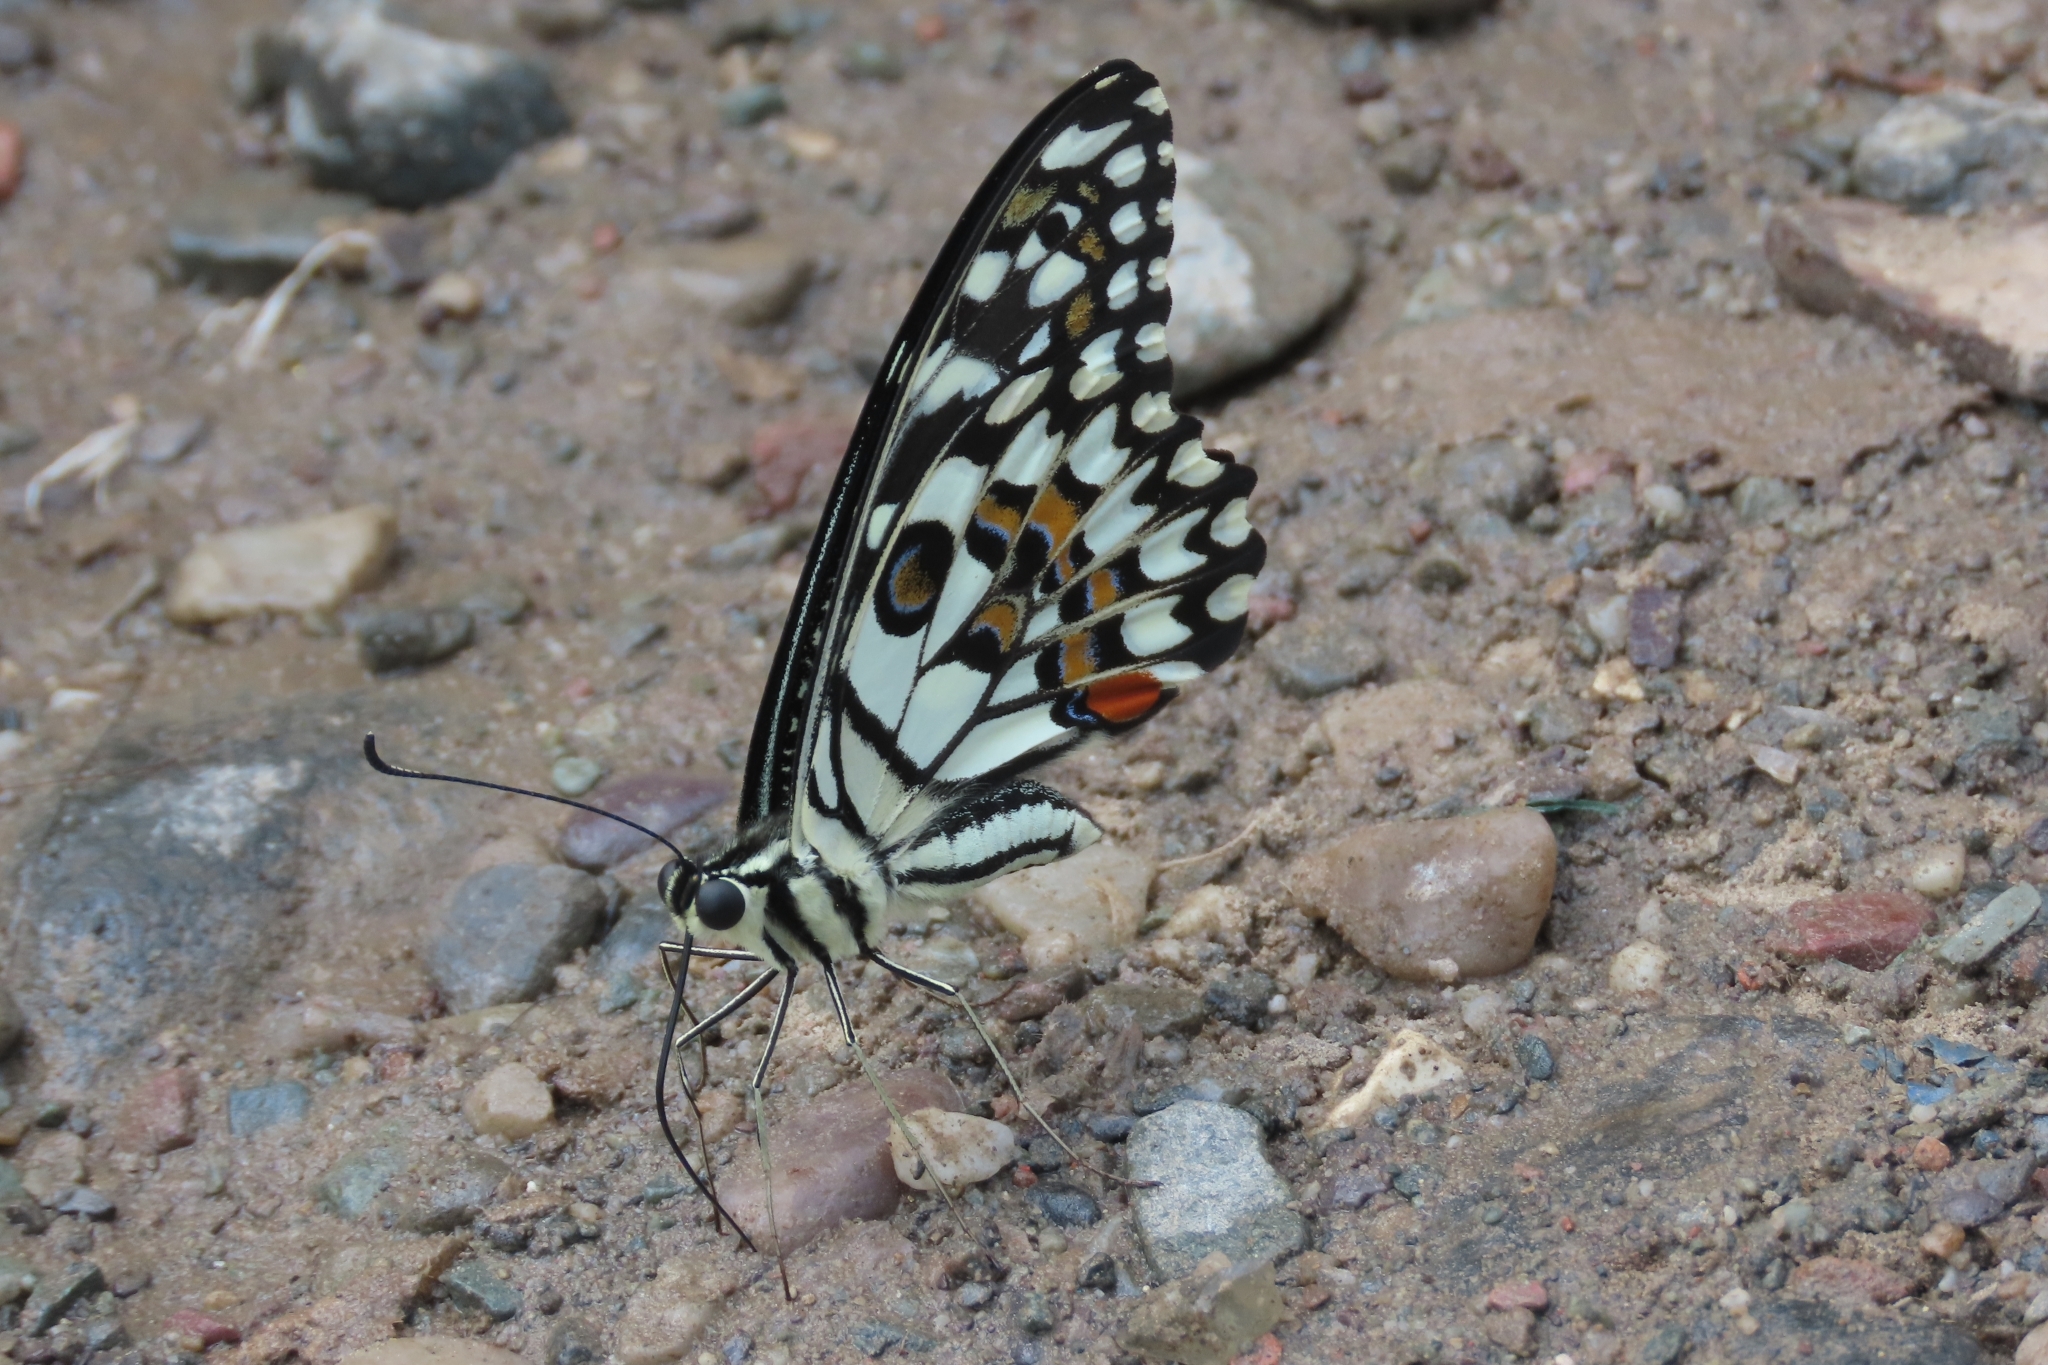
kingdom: Animalia
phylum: Arthropoda
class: Insecta
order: Lepidoptera
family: Papilionidae
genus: Papilio
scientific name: Papilio demoleus
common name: Lime butterfly
